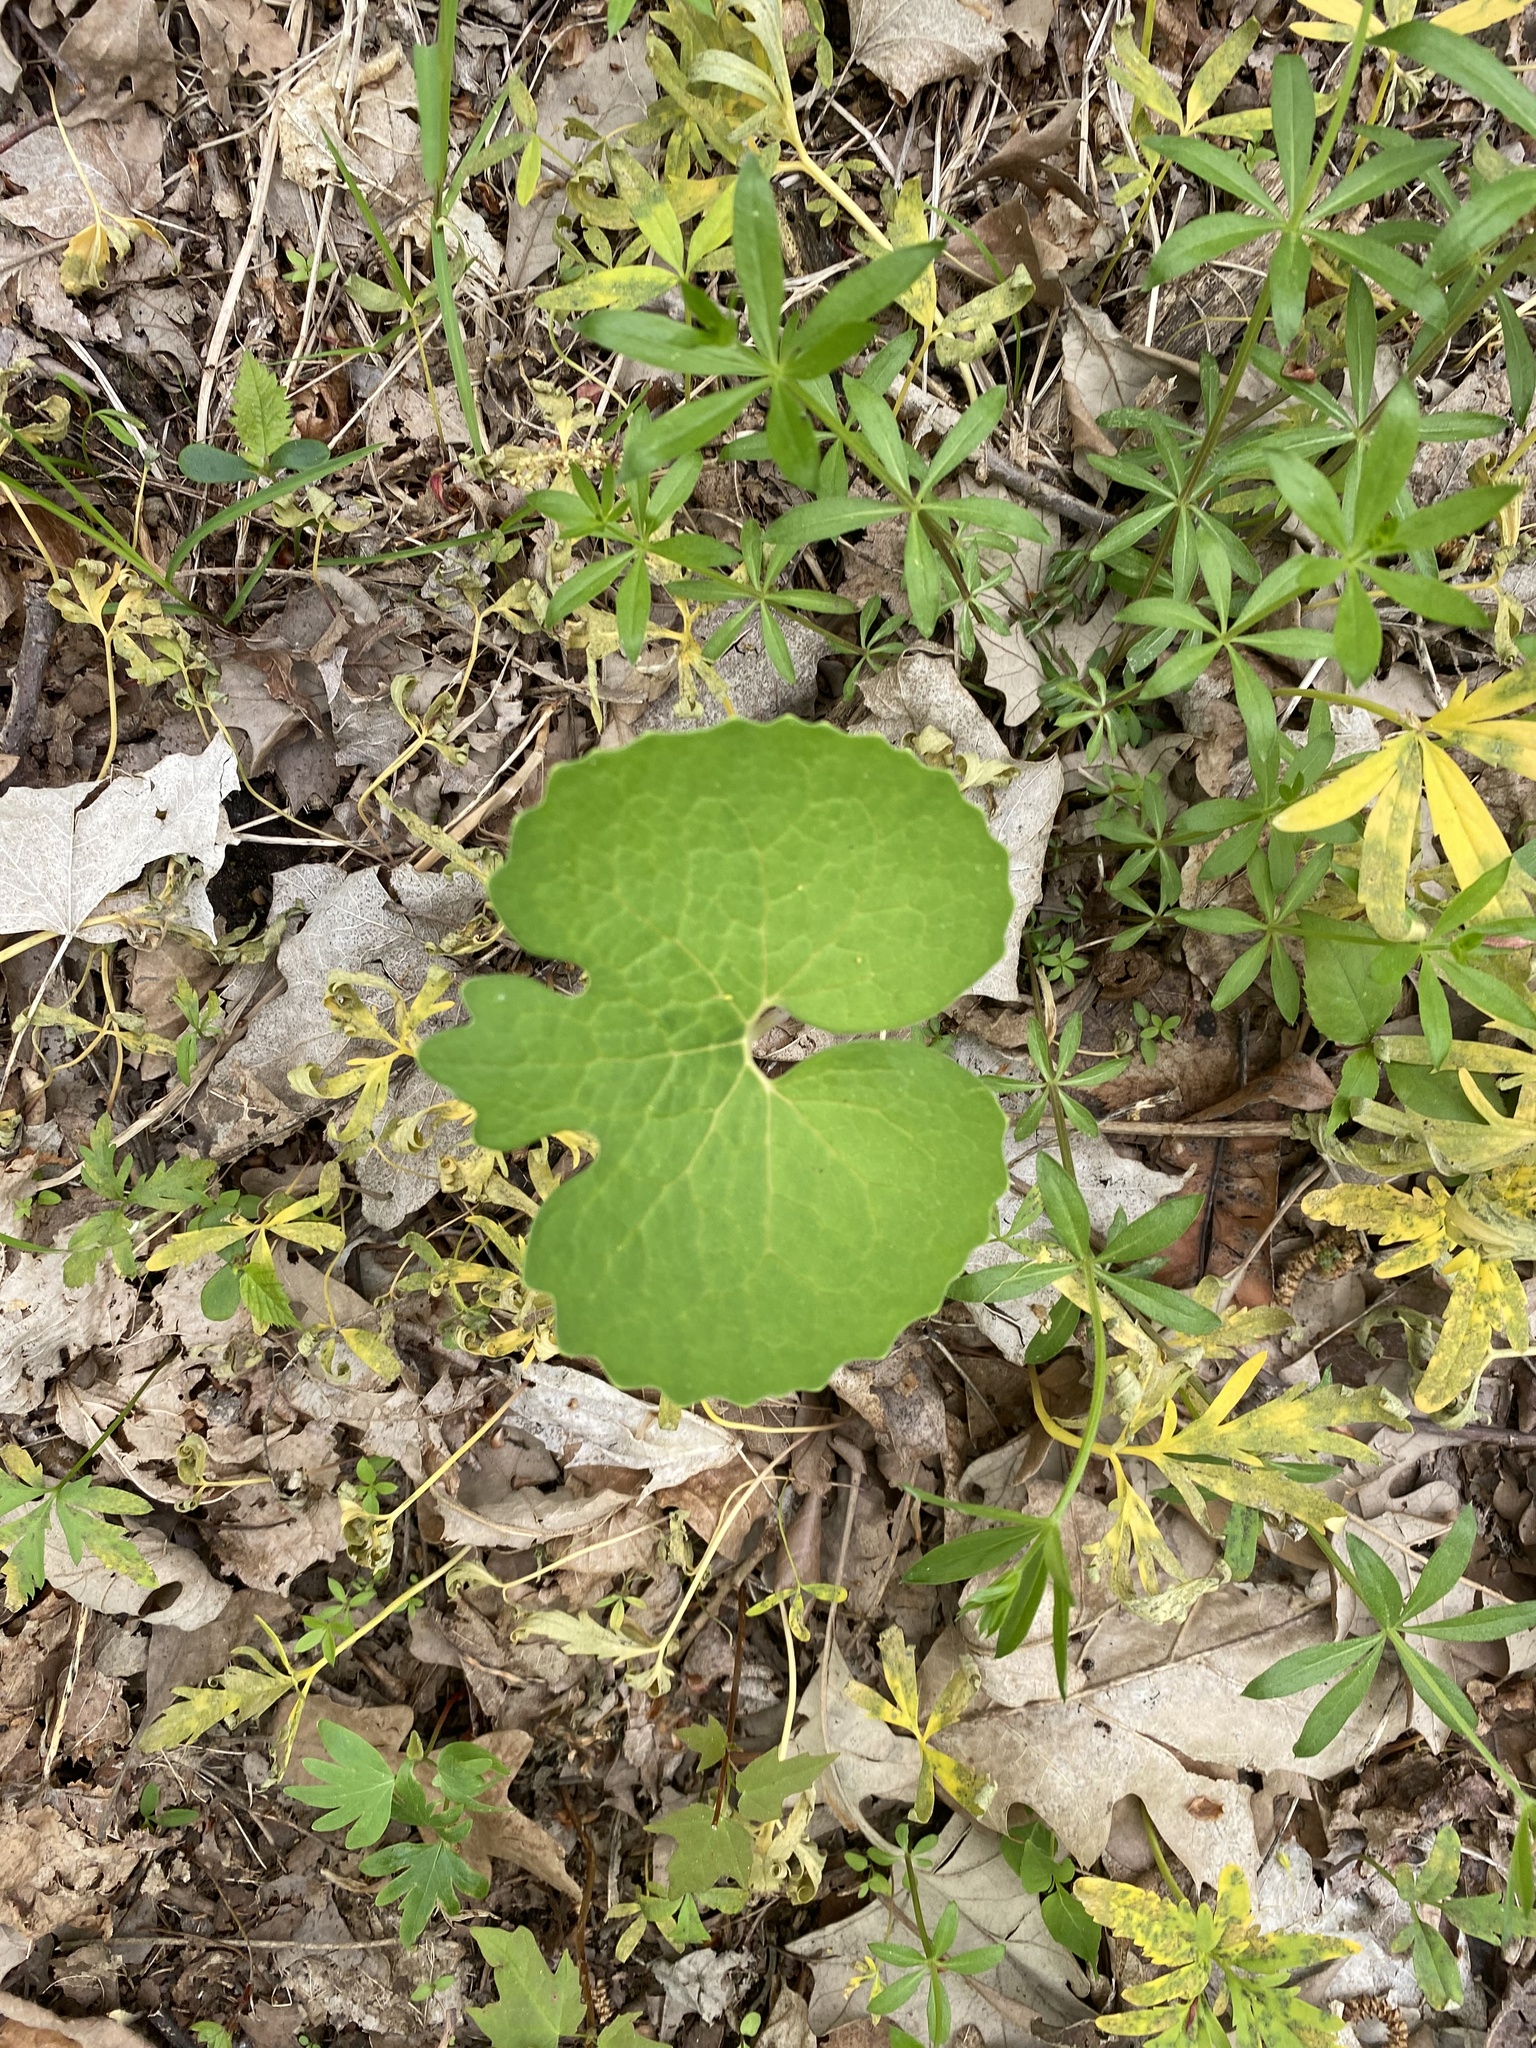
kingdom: Plantae
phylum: Tracheophyta
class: Magnoliopsida
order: Ranunculales
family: Papaveraceae
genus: Sanguinaria
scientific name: Sanguinaria canadensis
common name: Bloodroot
